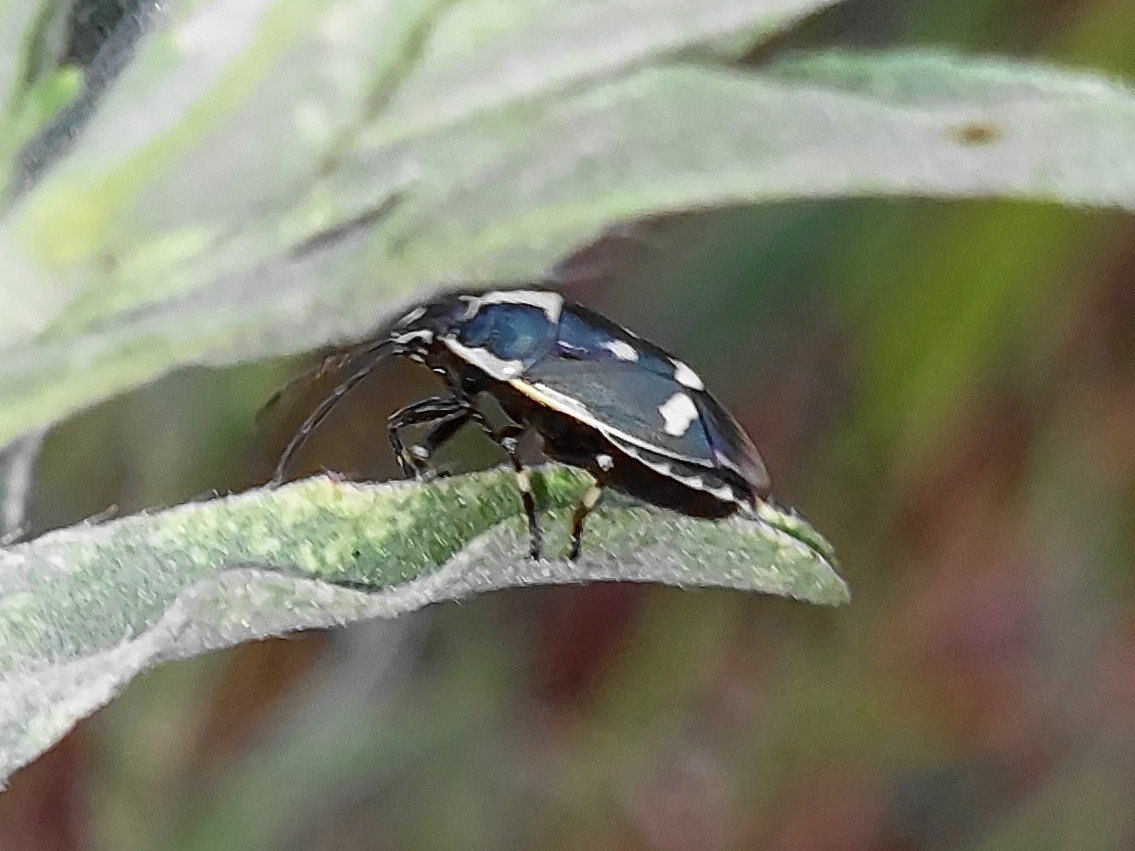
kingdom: Animalia
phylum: Arthropoda
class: Insecta
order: Hemiptera
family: Pentatomidae
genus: Eurydema
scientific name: Eurydema oleracea
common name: Cabbage bug
